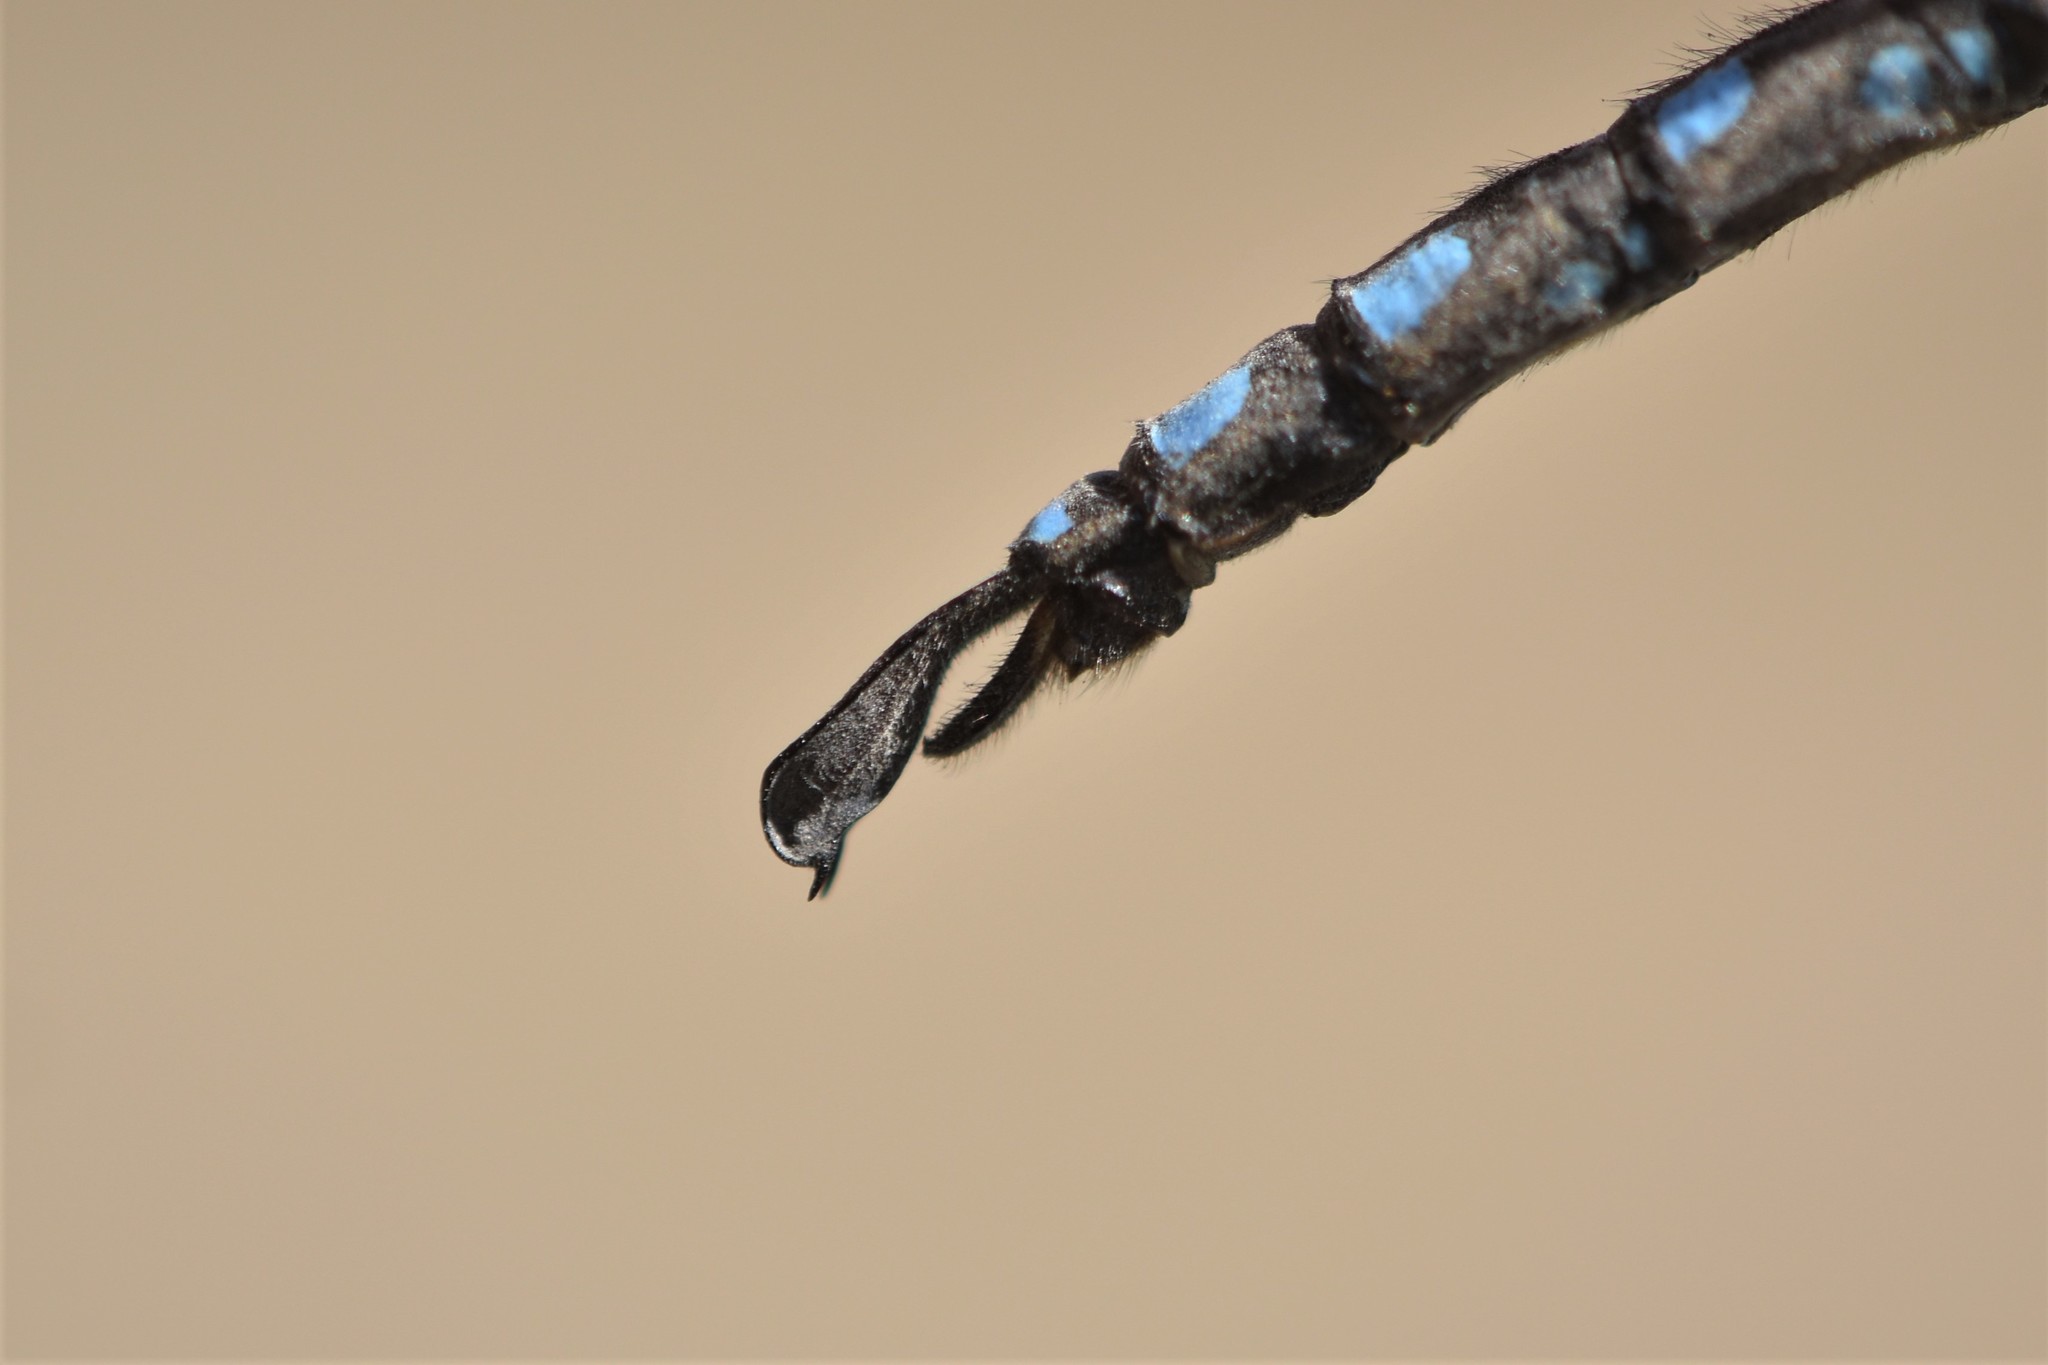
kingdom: Animalia
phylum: Arthropoda
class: Insecta
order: Odonata
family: Aeshnidae
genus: Aeshna
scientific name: Aeshna palmata
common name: Paddle-tailed darner
